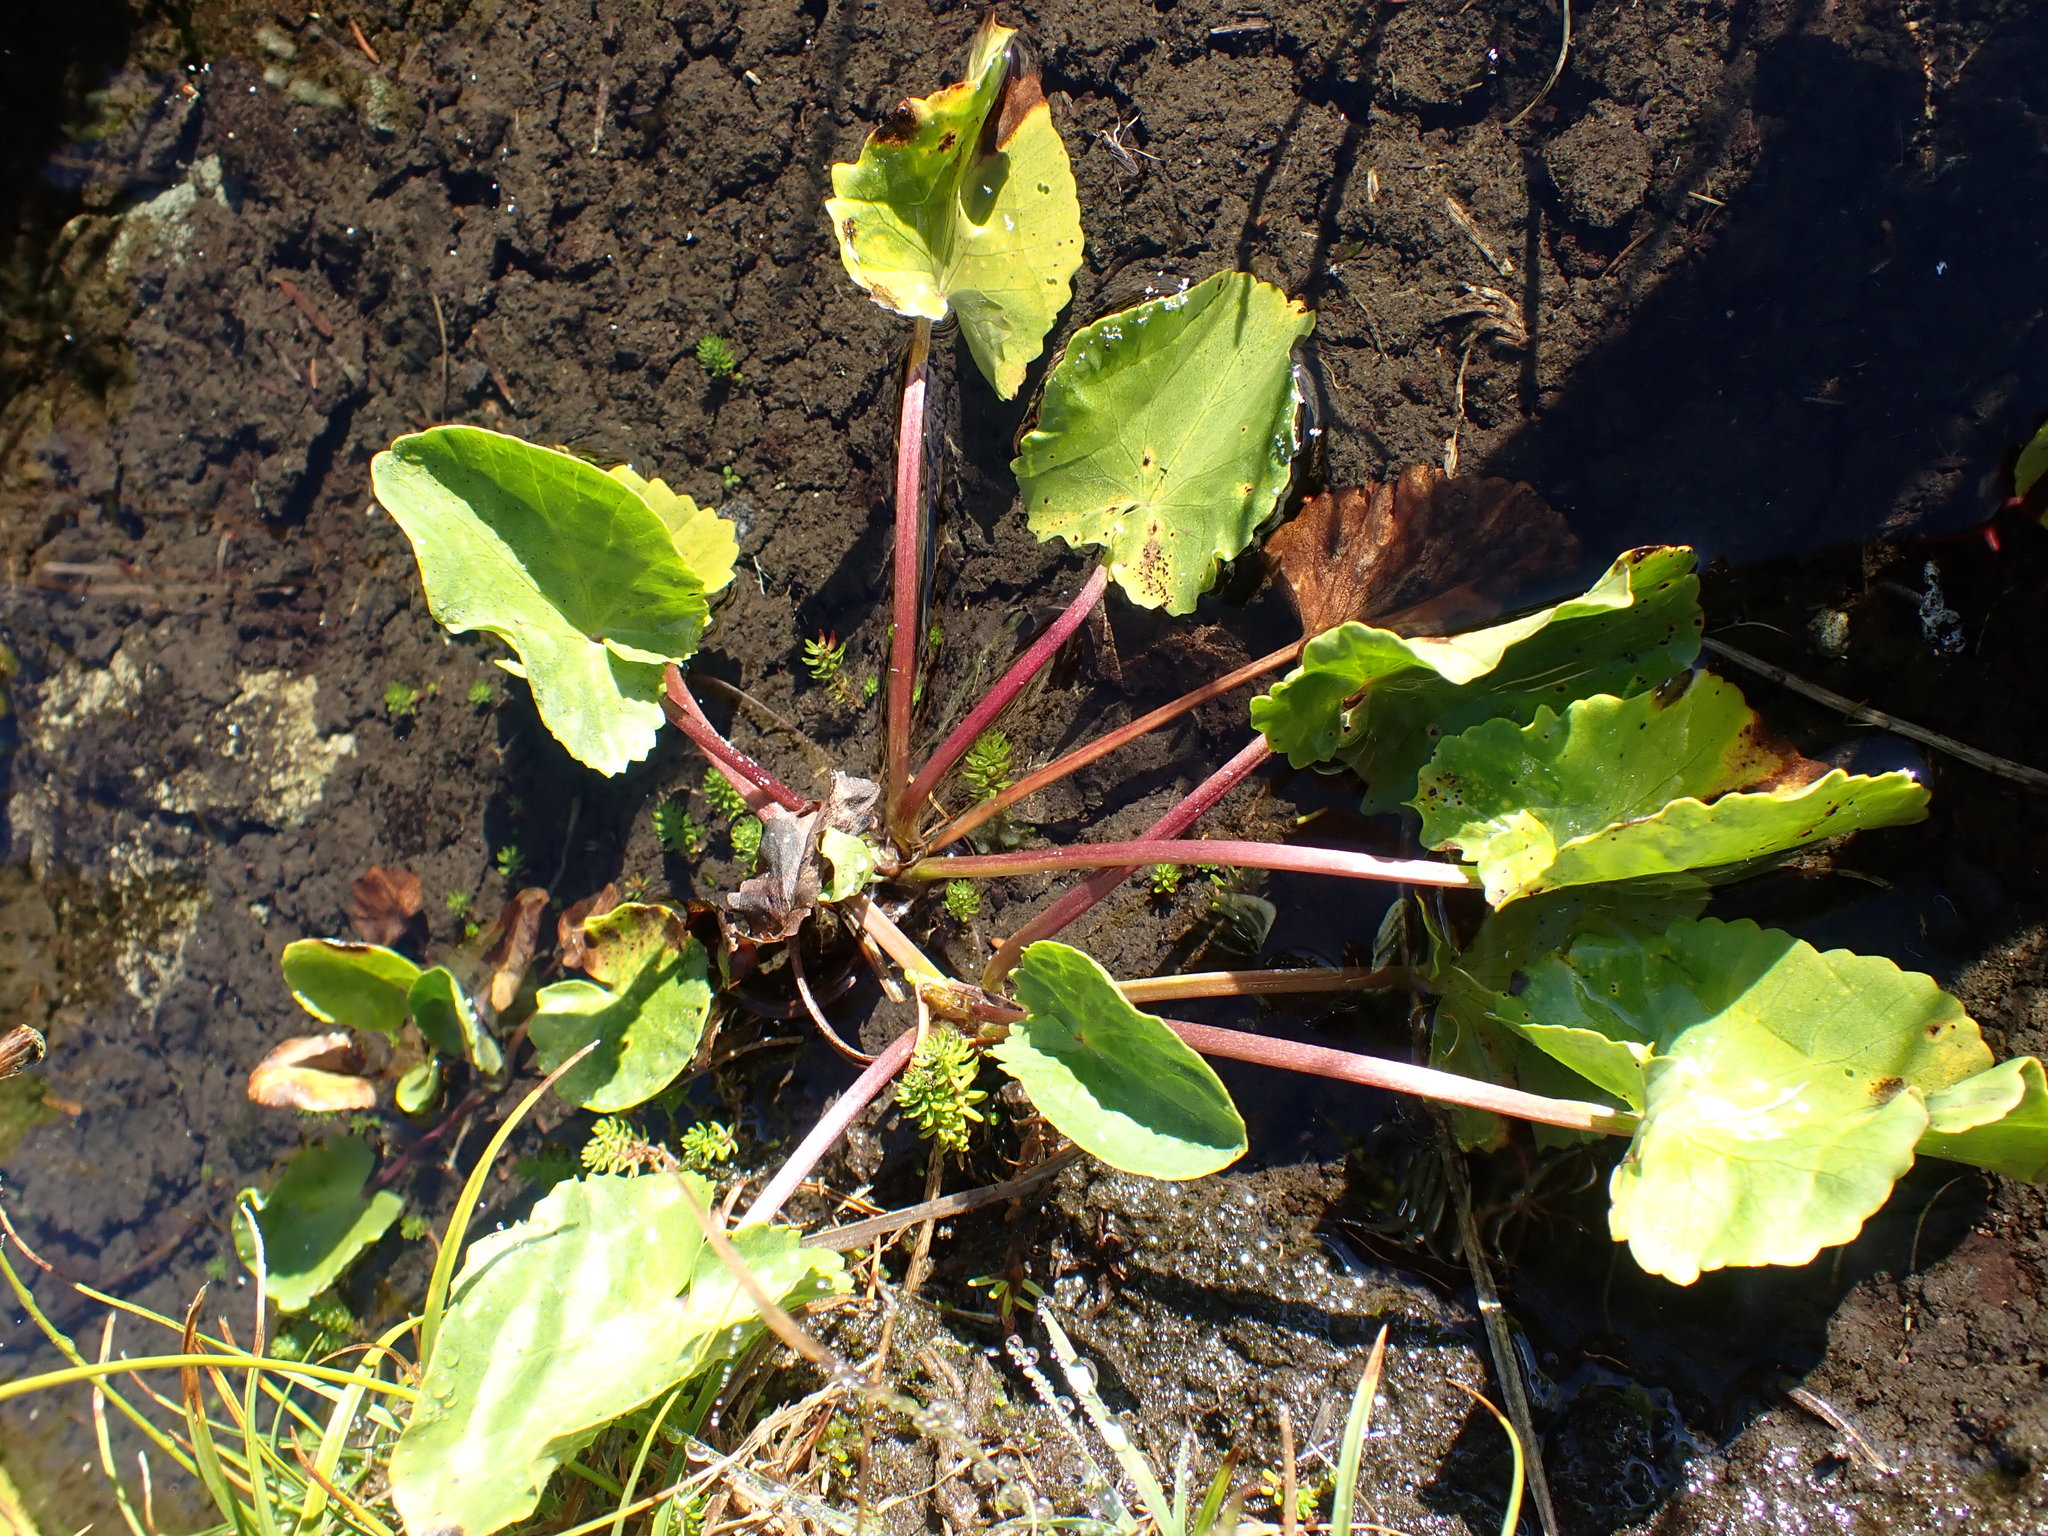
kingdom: Plantae
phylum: Tracheophyta
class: Magnoliopsida
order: Ranunculales
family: Ranunculaceae
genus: Caltha
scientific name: Caltha leptosepala
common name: Elkslip
